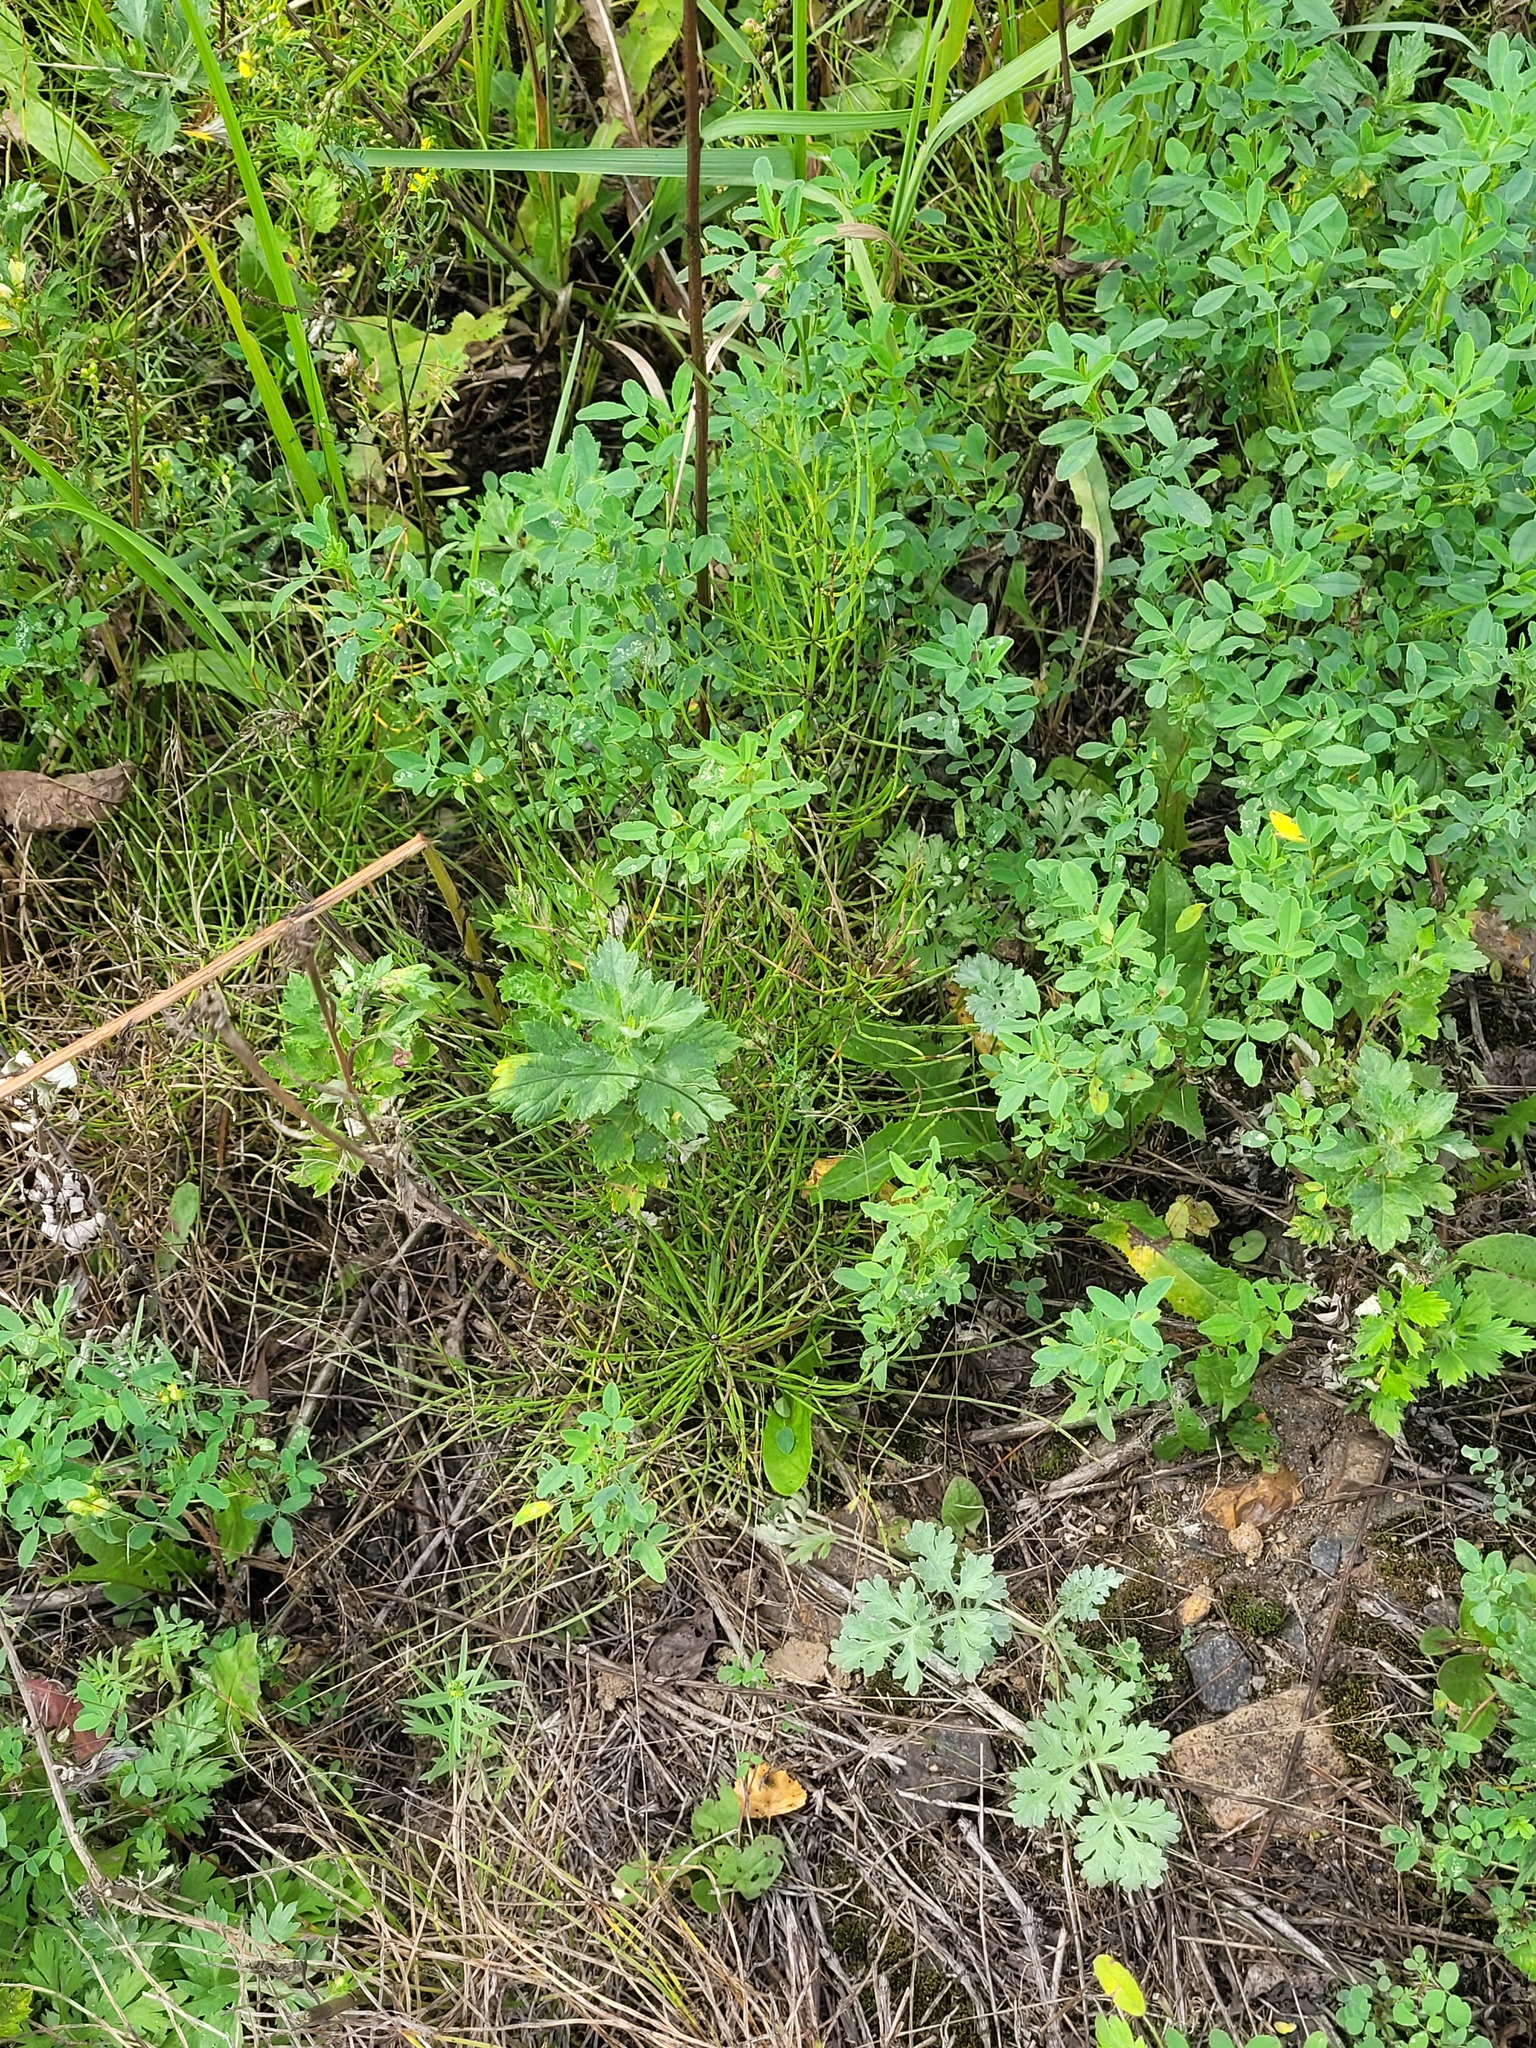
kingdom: Plantae
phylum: Tracheophyta
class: Polypodiopsida
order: Equisetales
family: Equisetaceae
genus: Equisetum
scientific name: Equisetum arvense
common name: Field horsetail
